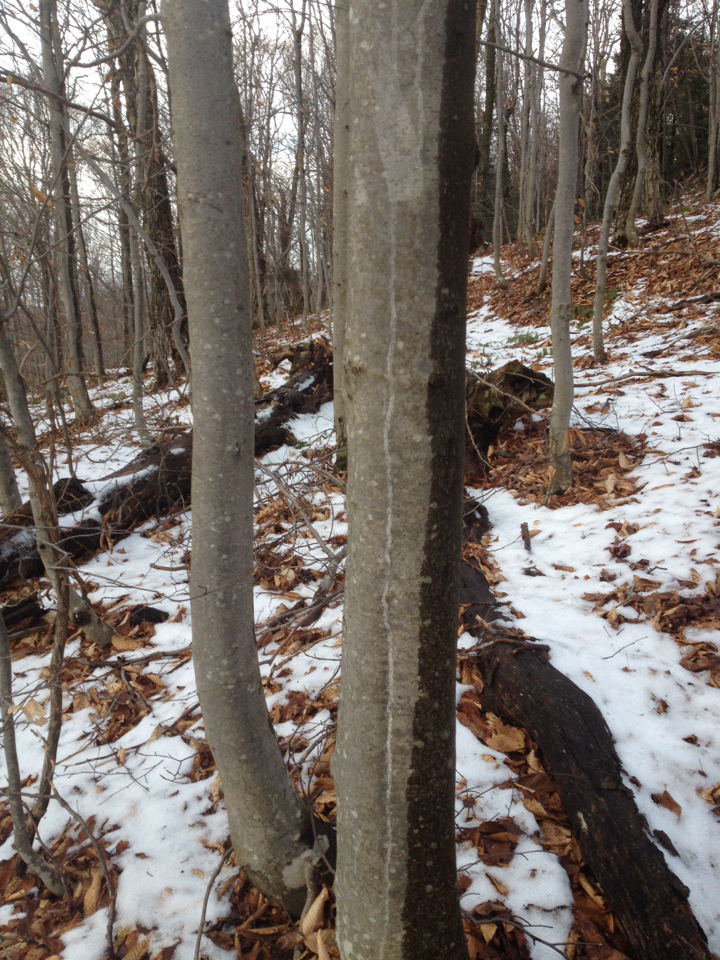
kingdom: Plantae
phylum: Tracheophyta
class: Magnoliopsida
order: Fagales
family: Fagaceae
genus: Fagus
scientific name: Fagus grandifolia
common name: American beech
